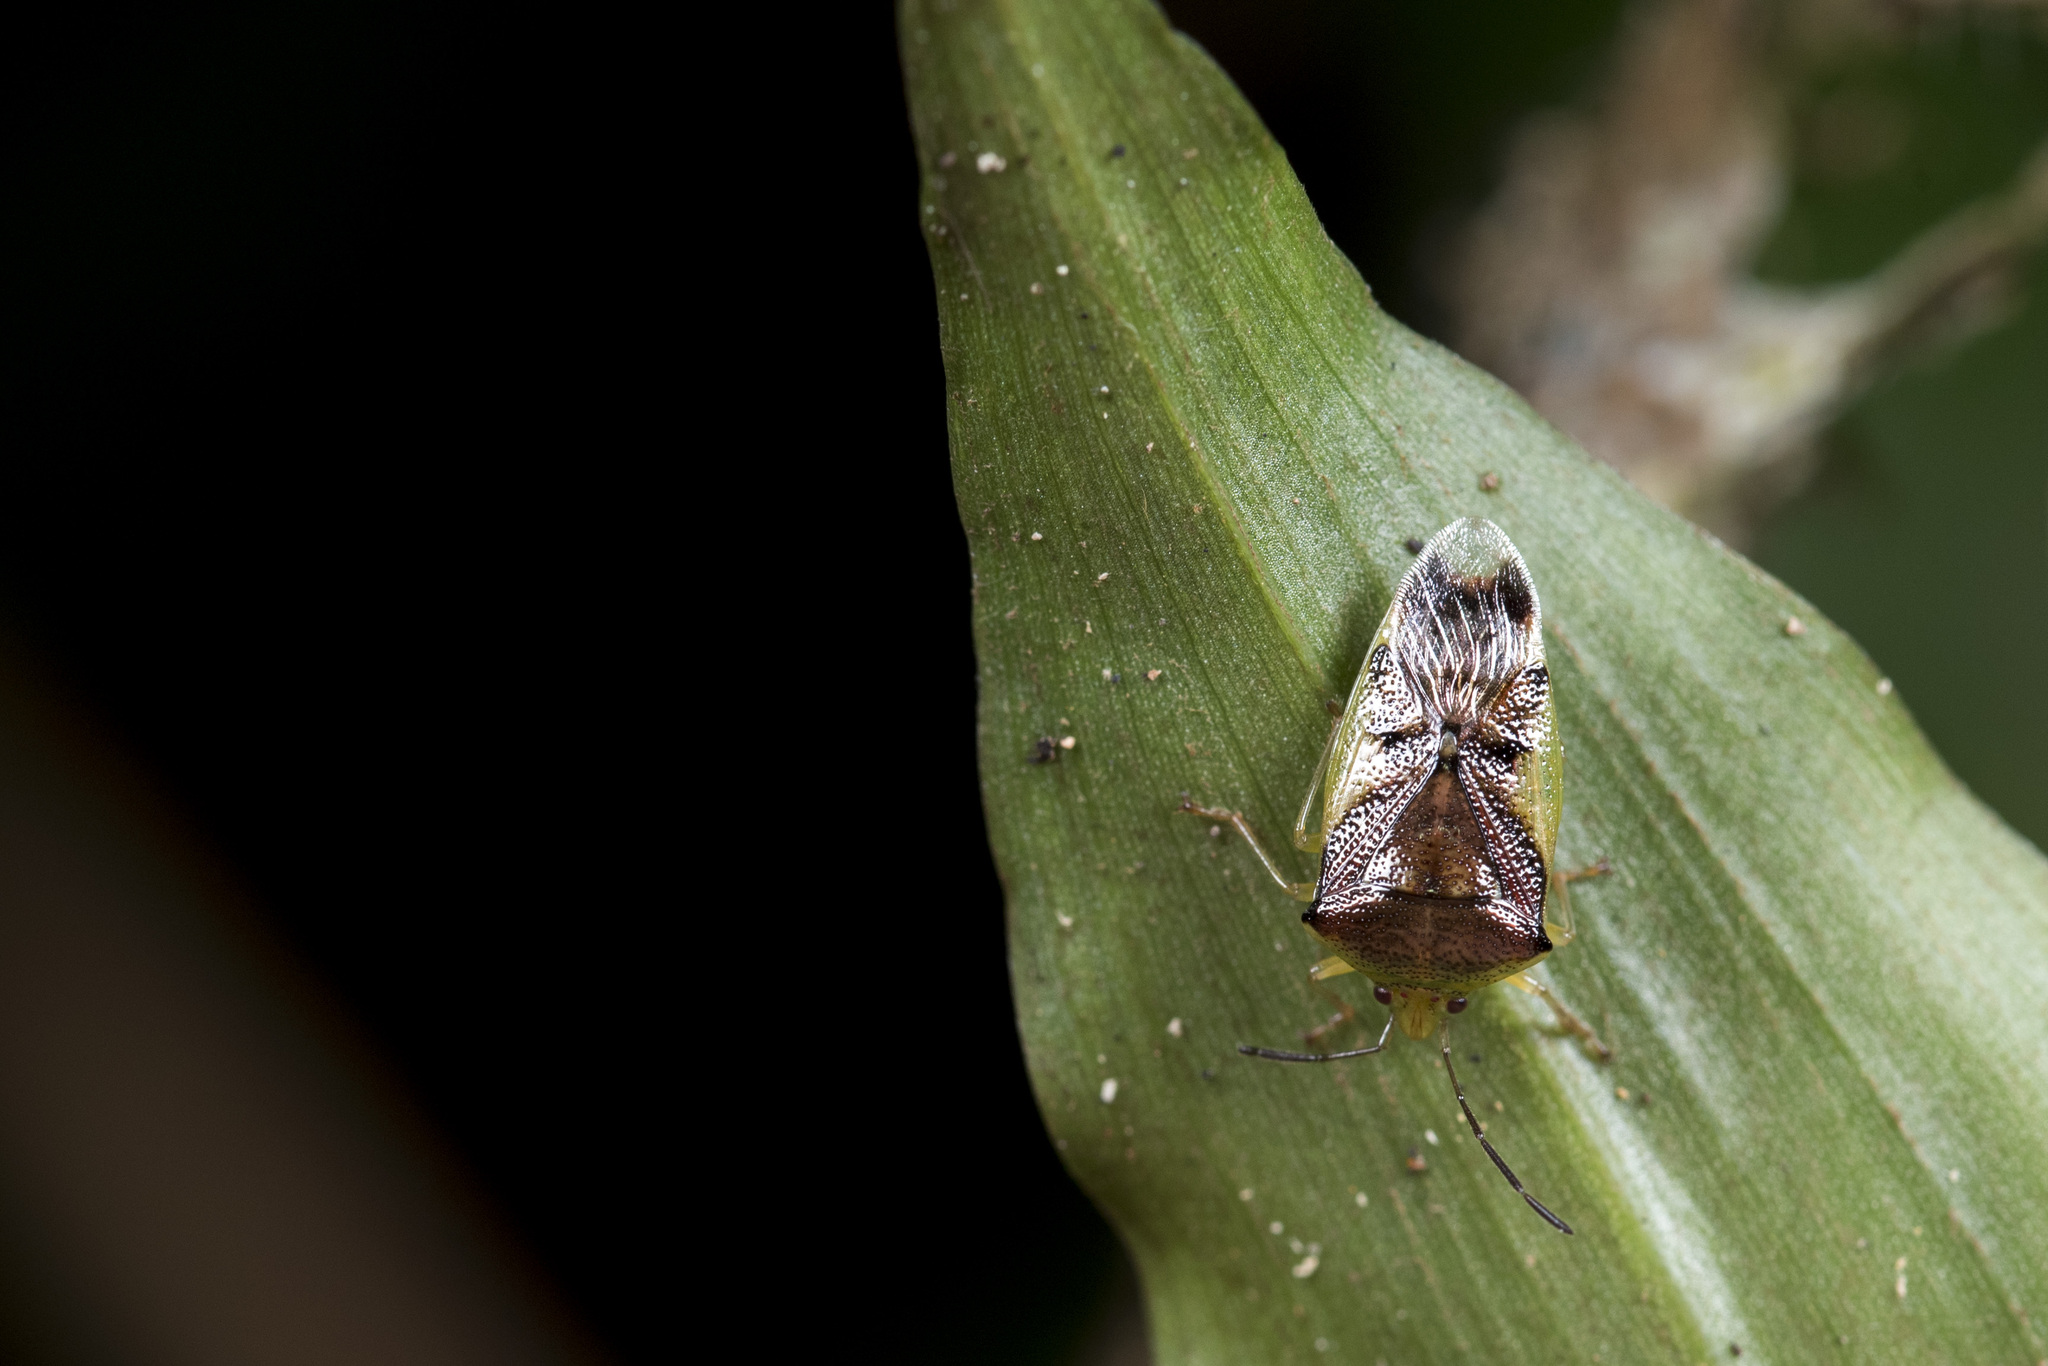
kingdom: Animalia
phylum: Arthropoda
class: Insecta
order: Hemiptera
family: Acanthosomatidae
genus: Elasmostethus
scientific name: Elasmostethus nubilus
